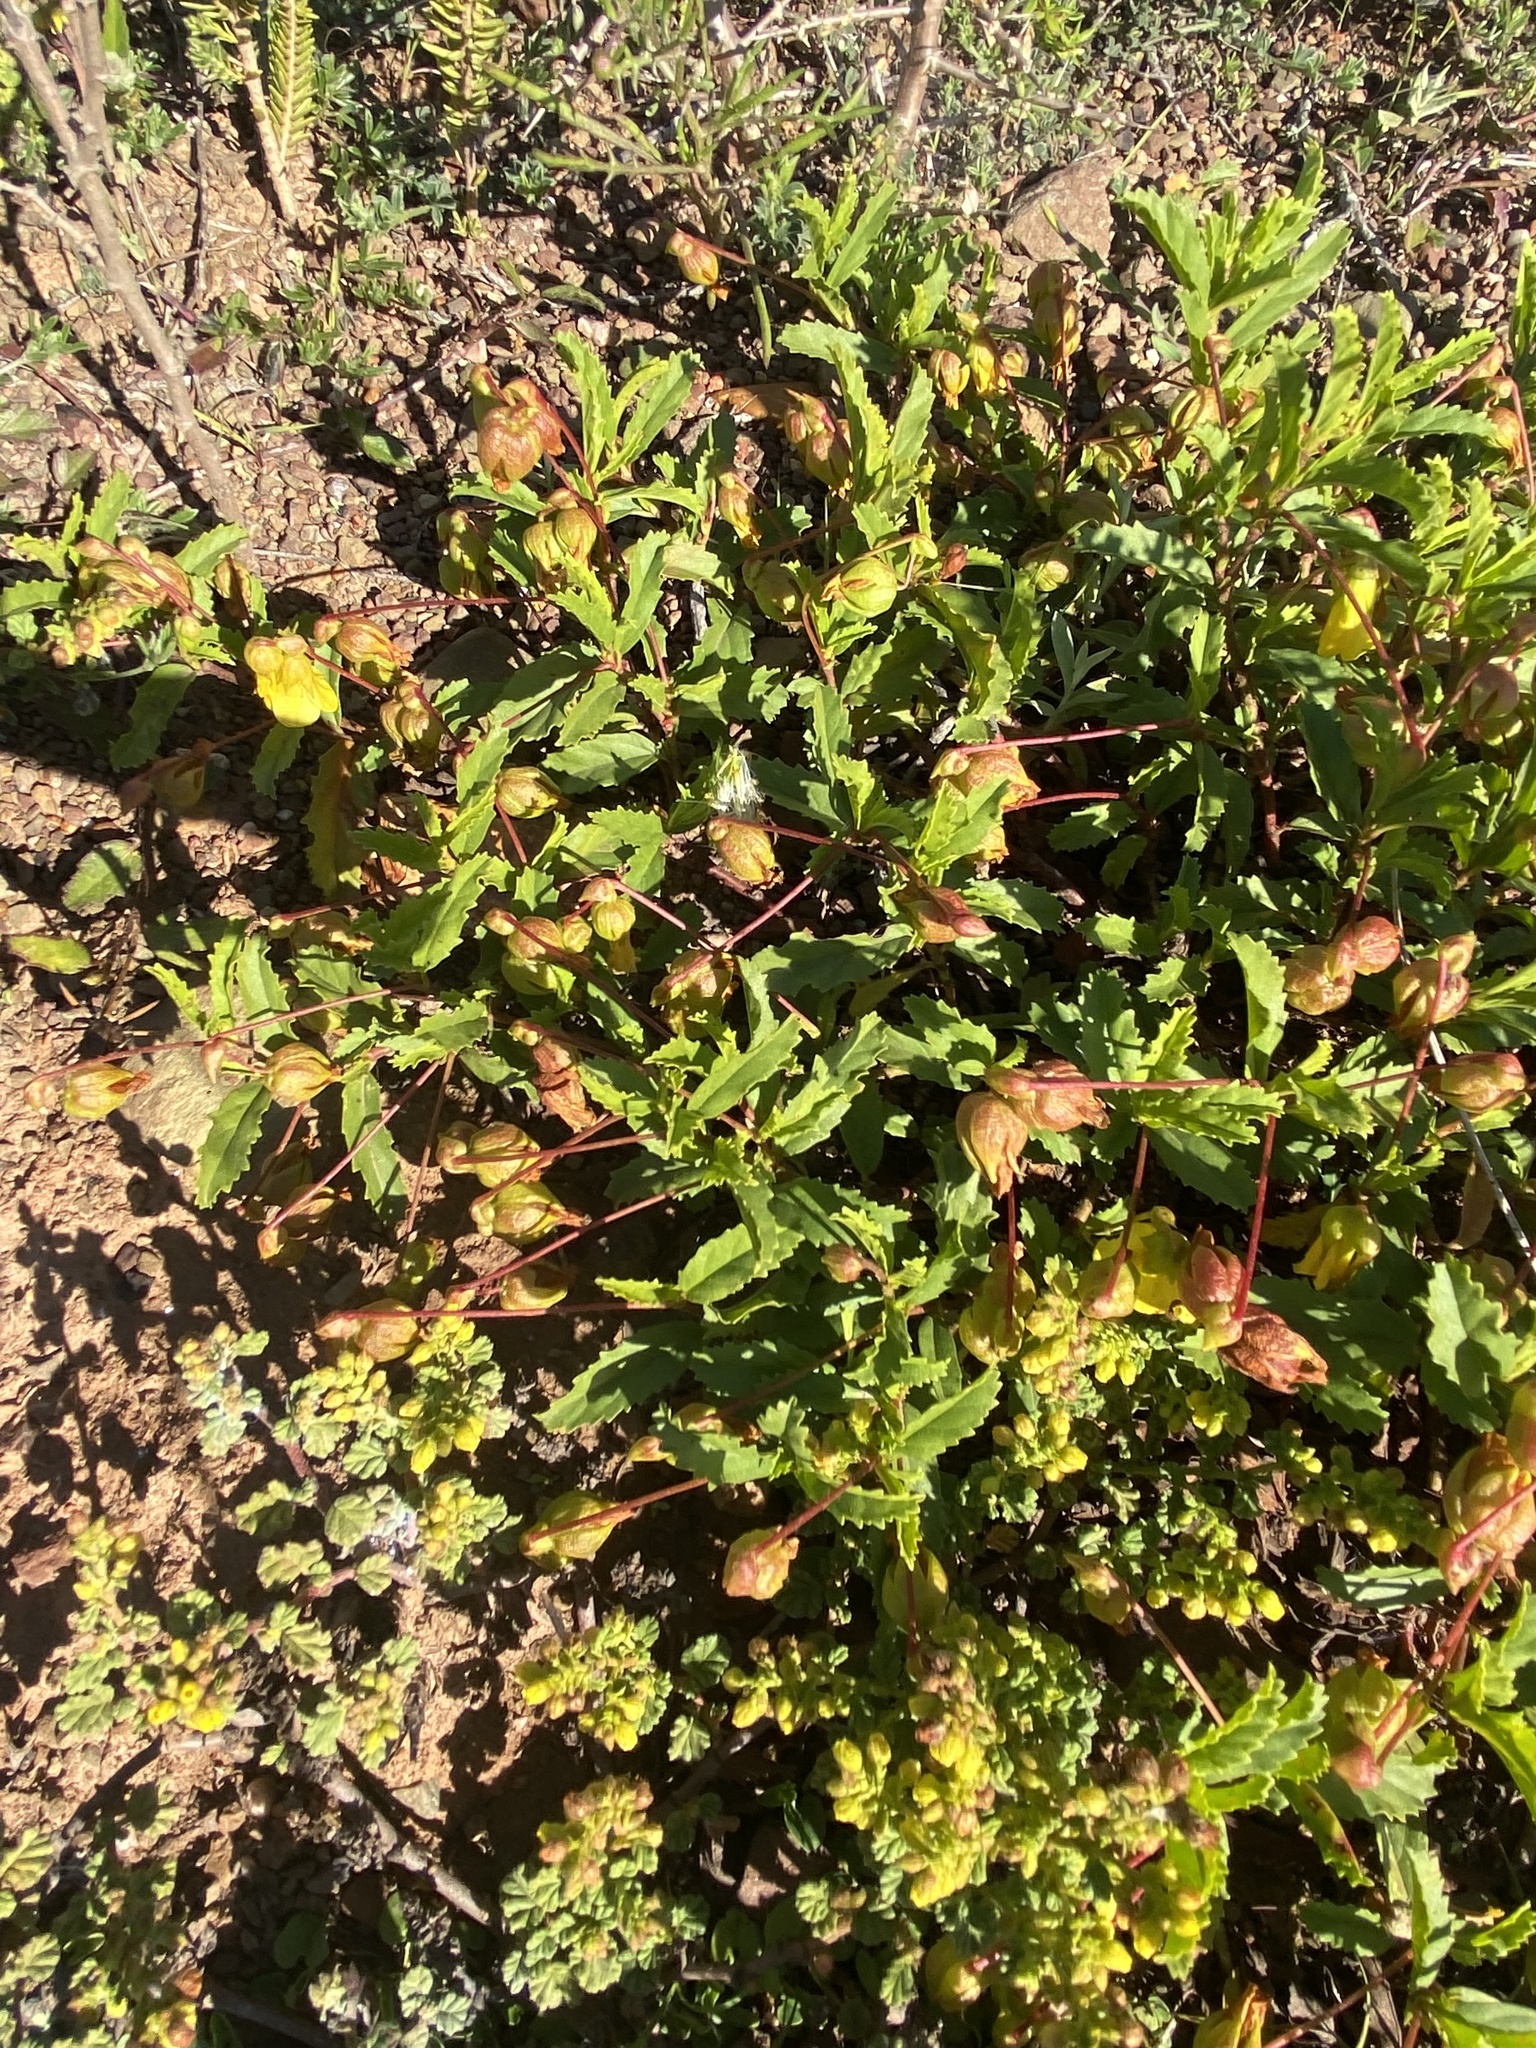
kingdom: Plantae
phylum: Tracheophyta
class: Magnoliopsida
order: Malvales
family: Malvaceae
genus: Hermannia
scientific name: Hermannia saccifera
